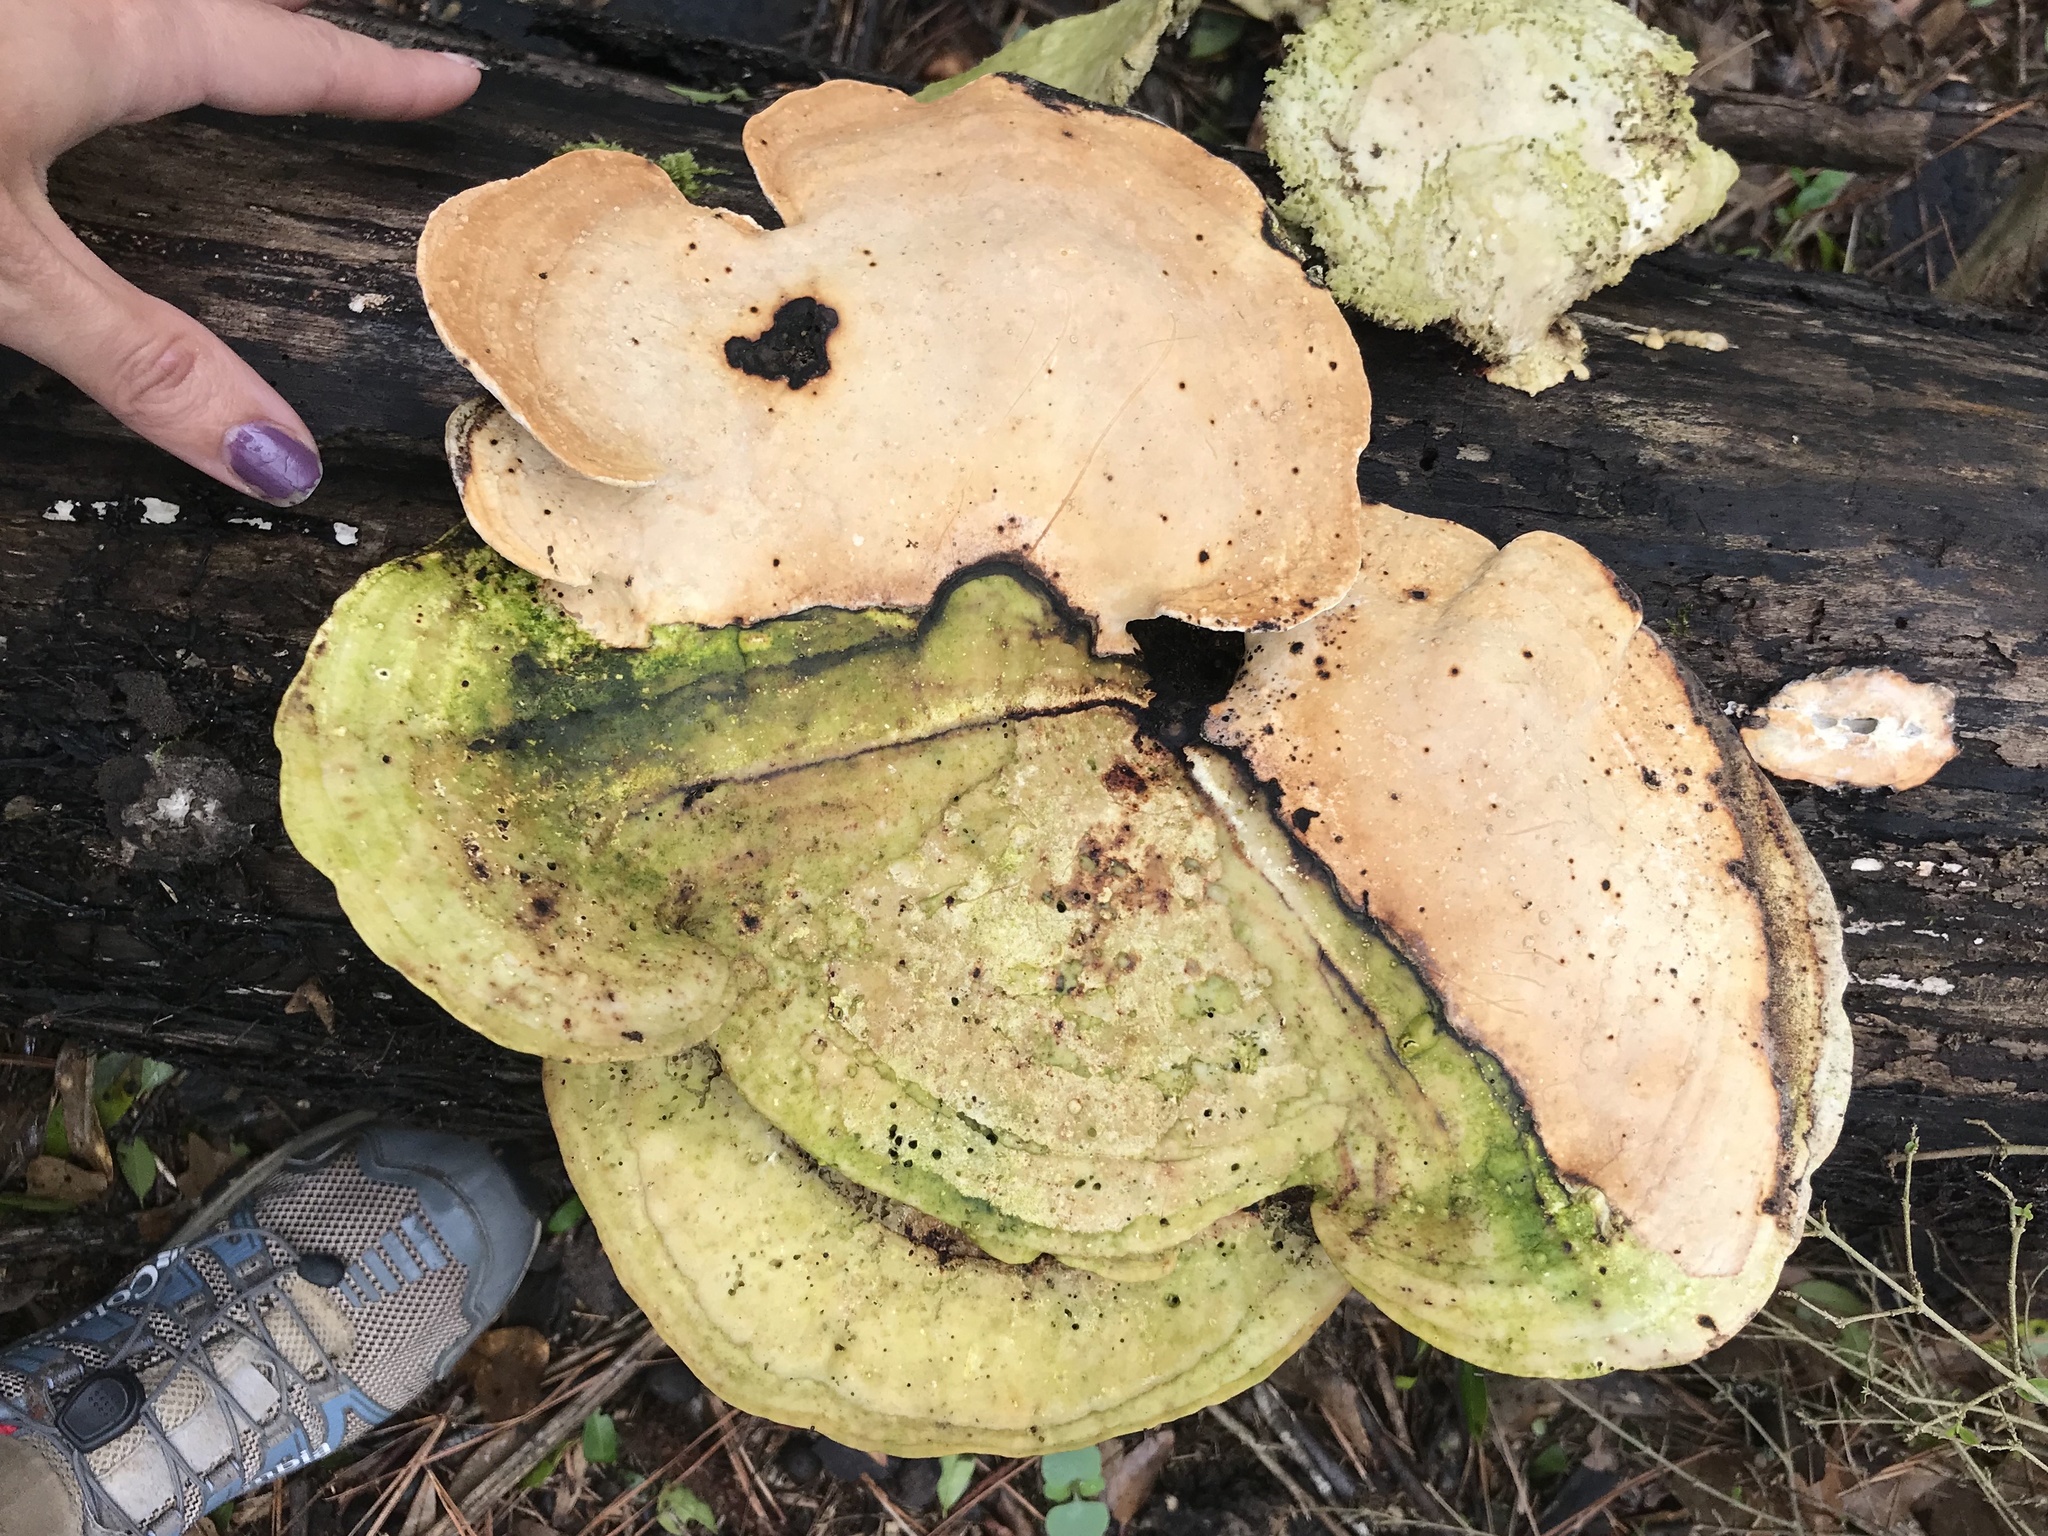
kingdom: Fungi
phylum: Basidiomycota
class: Agaricomycetes
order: Polyporales
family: Polyporaceae
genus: Trametes
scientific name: Trametes
